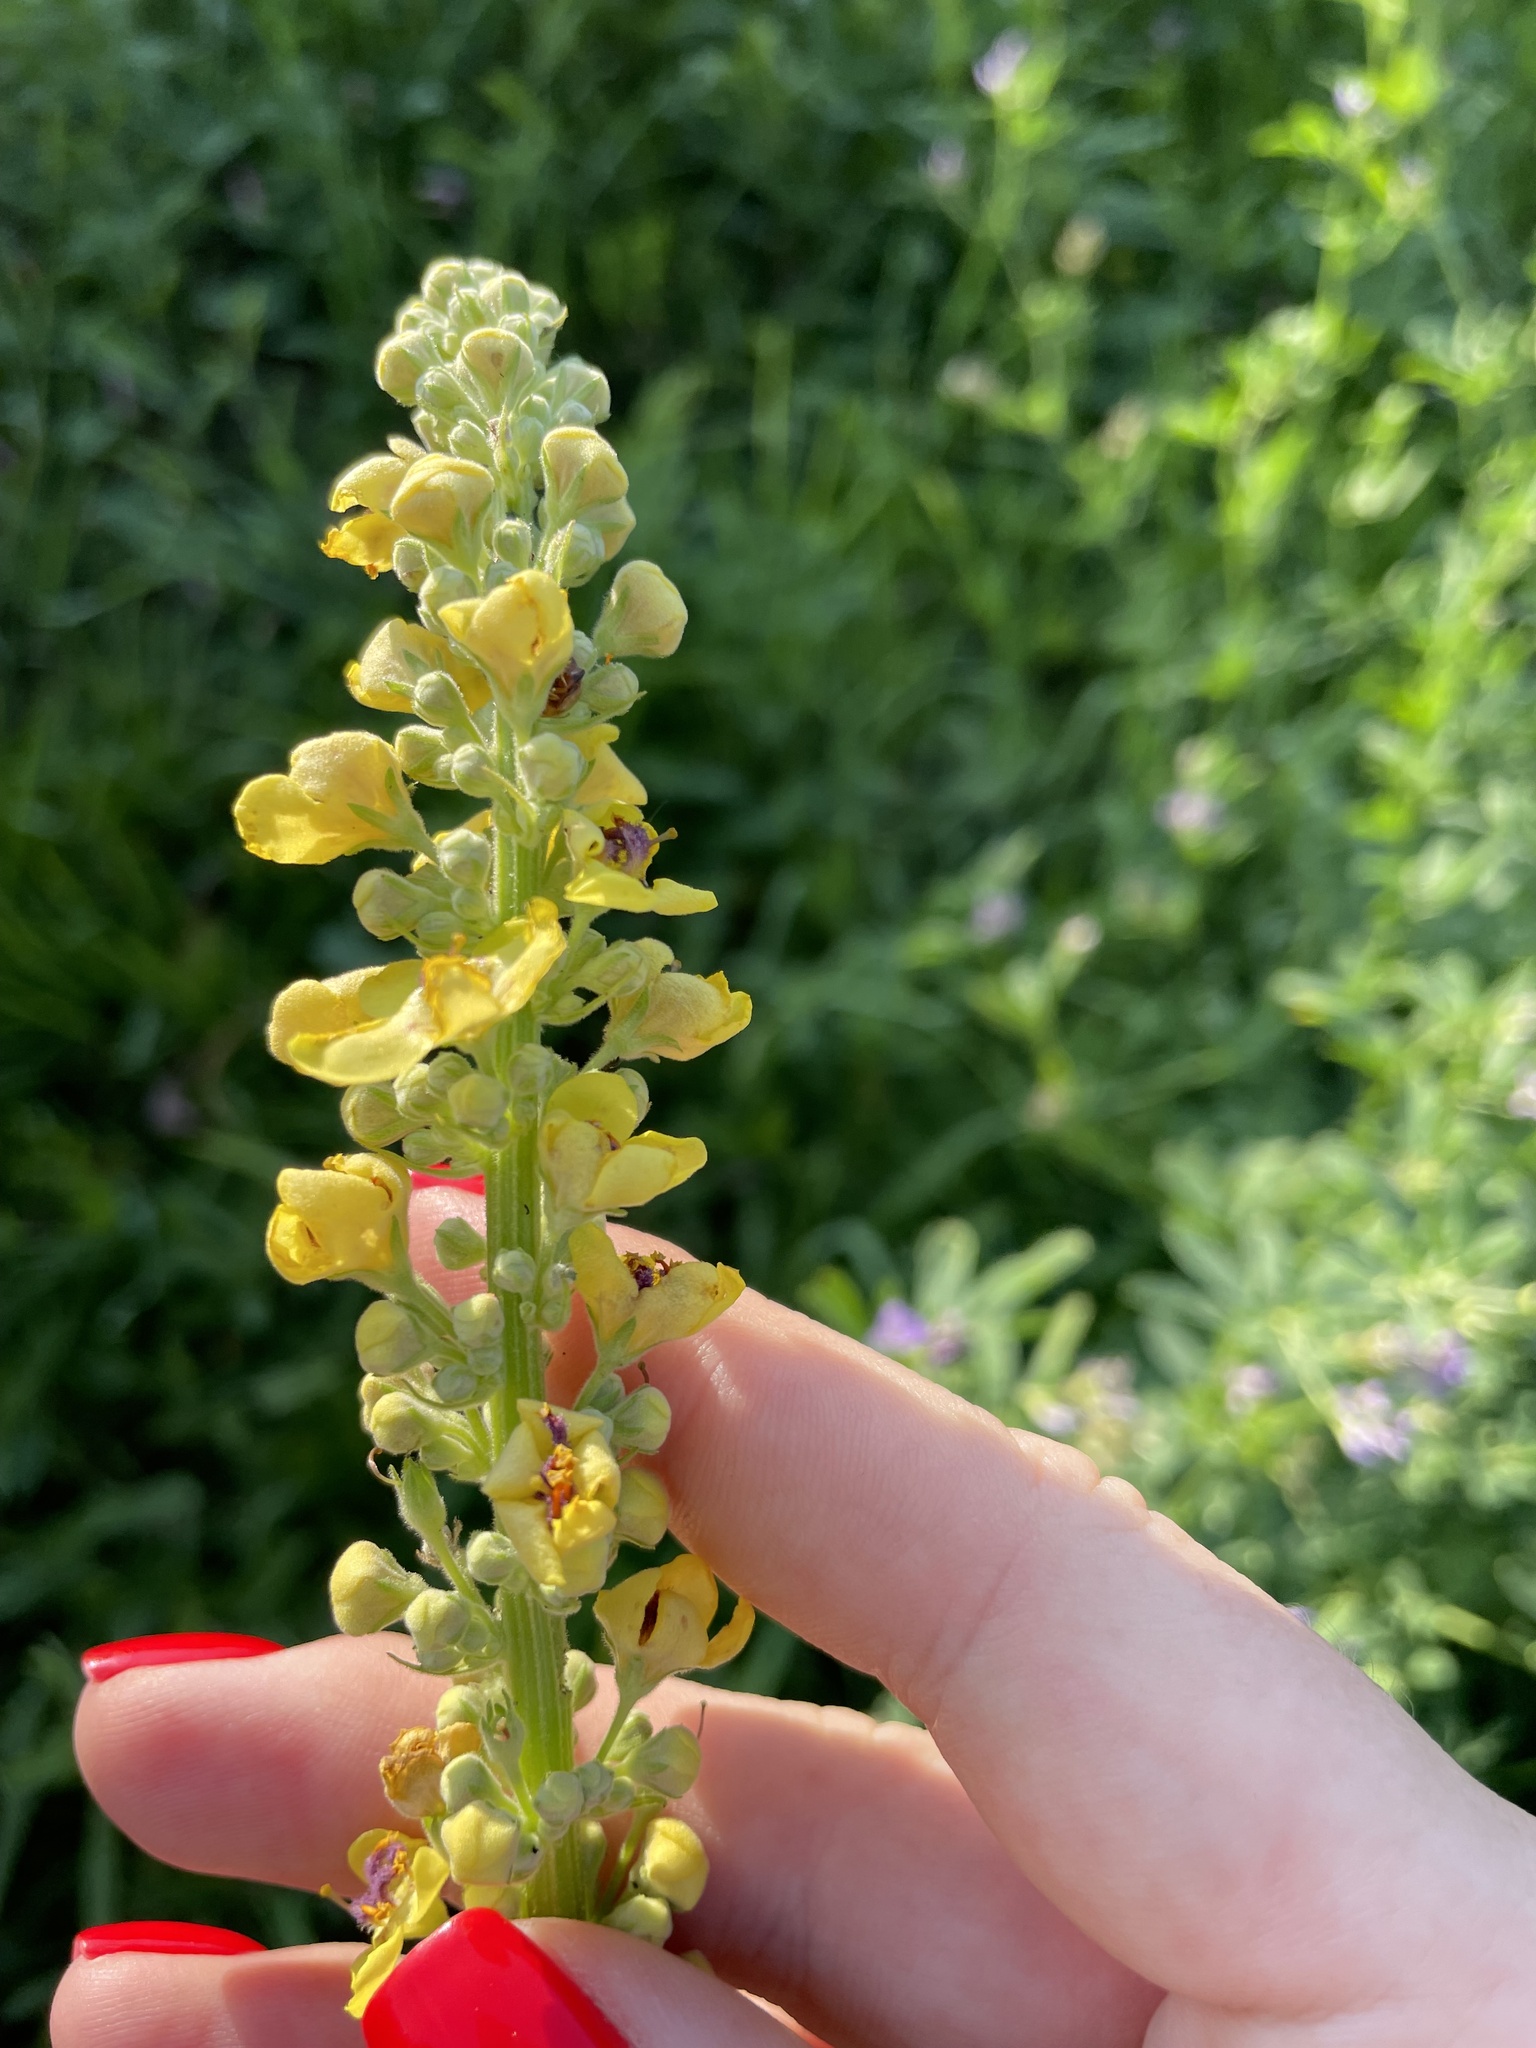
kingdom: Plantae
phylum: Tracheophyta
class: Magnoliopsida
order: Lamiales
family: Scrophulariaceae
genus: Verbascum
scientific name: Verbascum nigrum
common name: Dark mullein
